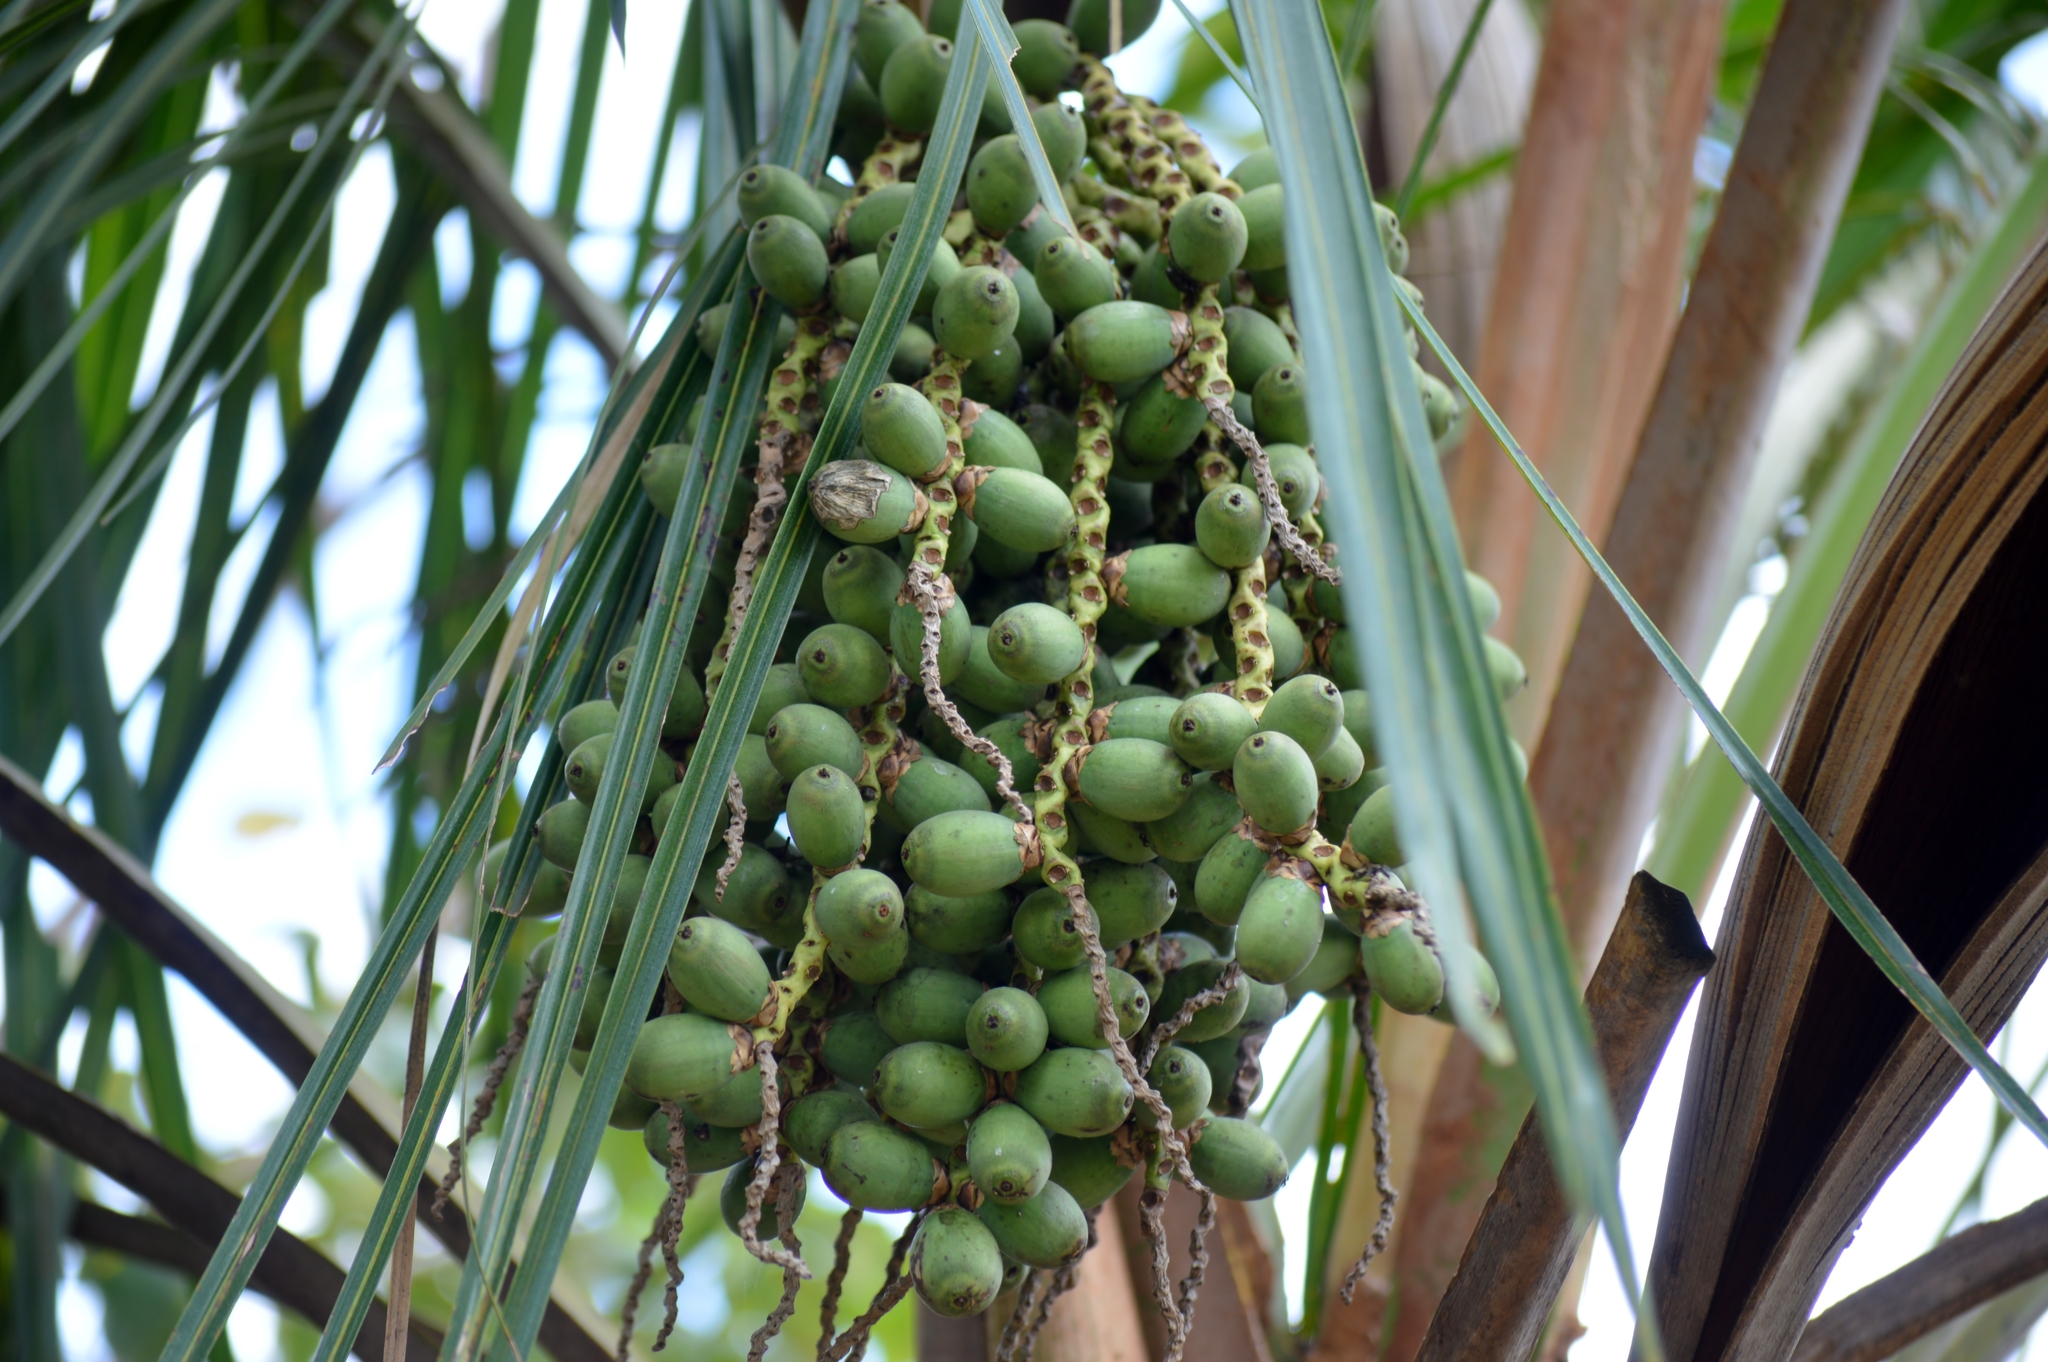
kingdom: Plantae
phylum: Tracheophyta
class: Liliopsida
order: Arecales
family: Arecaceae
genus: Syagrus
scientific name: Syagrus comosa
